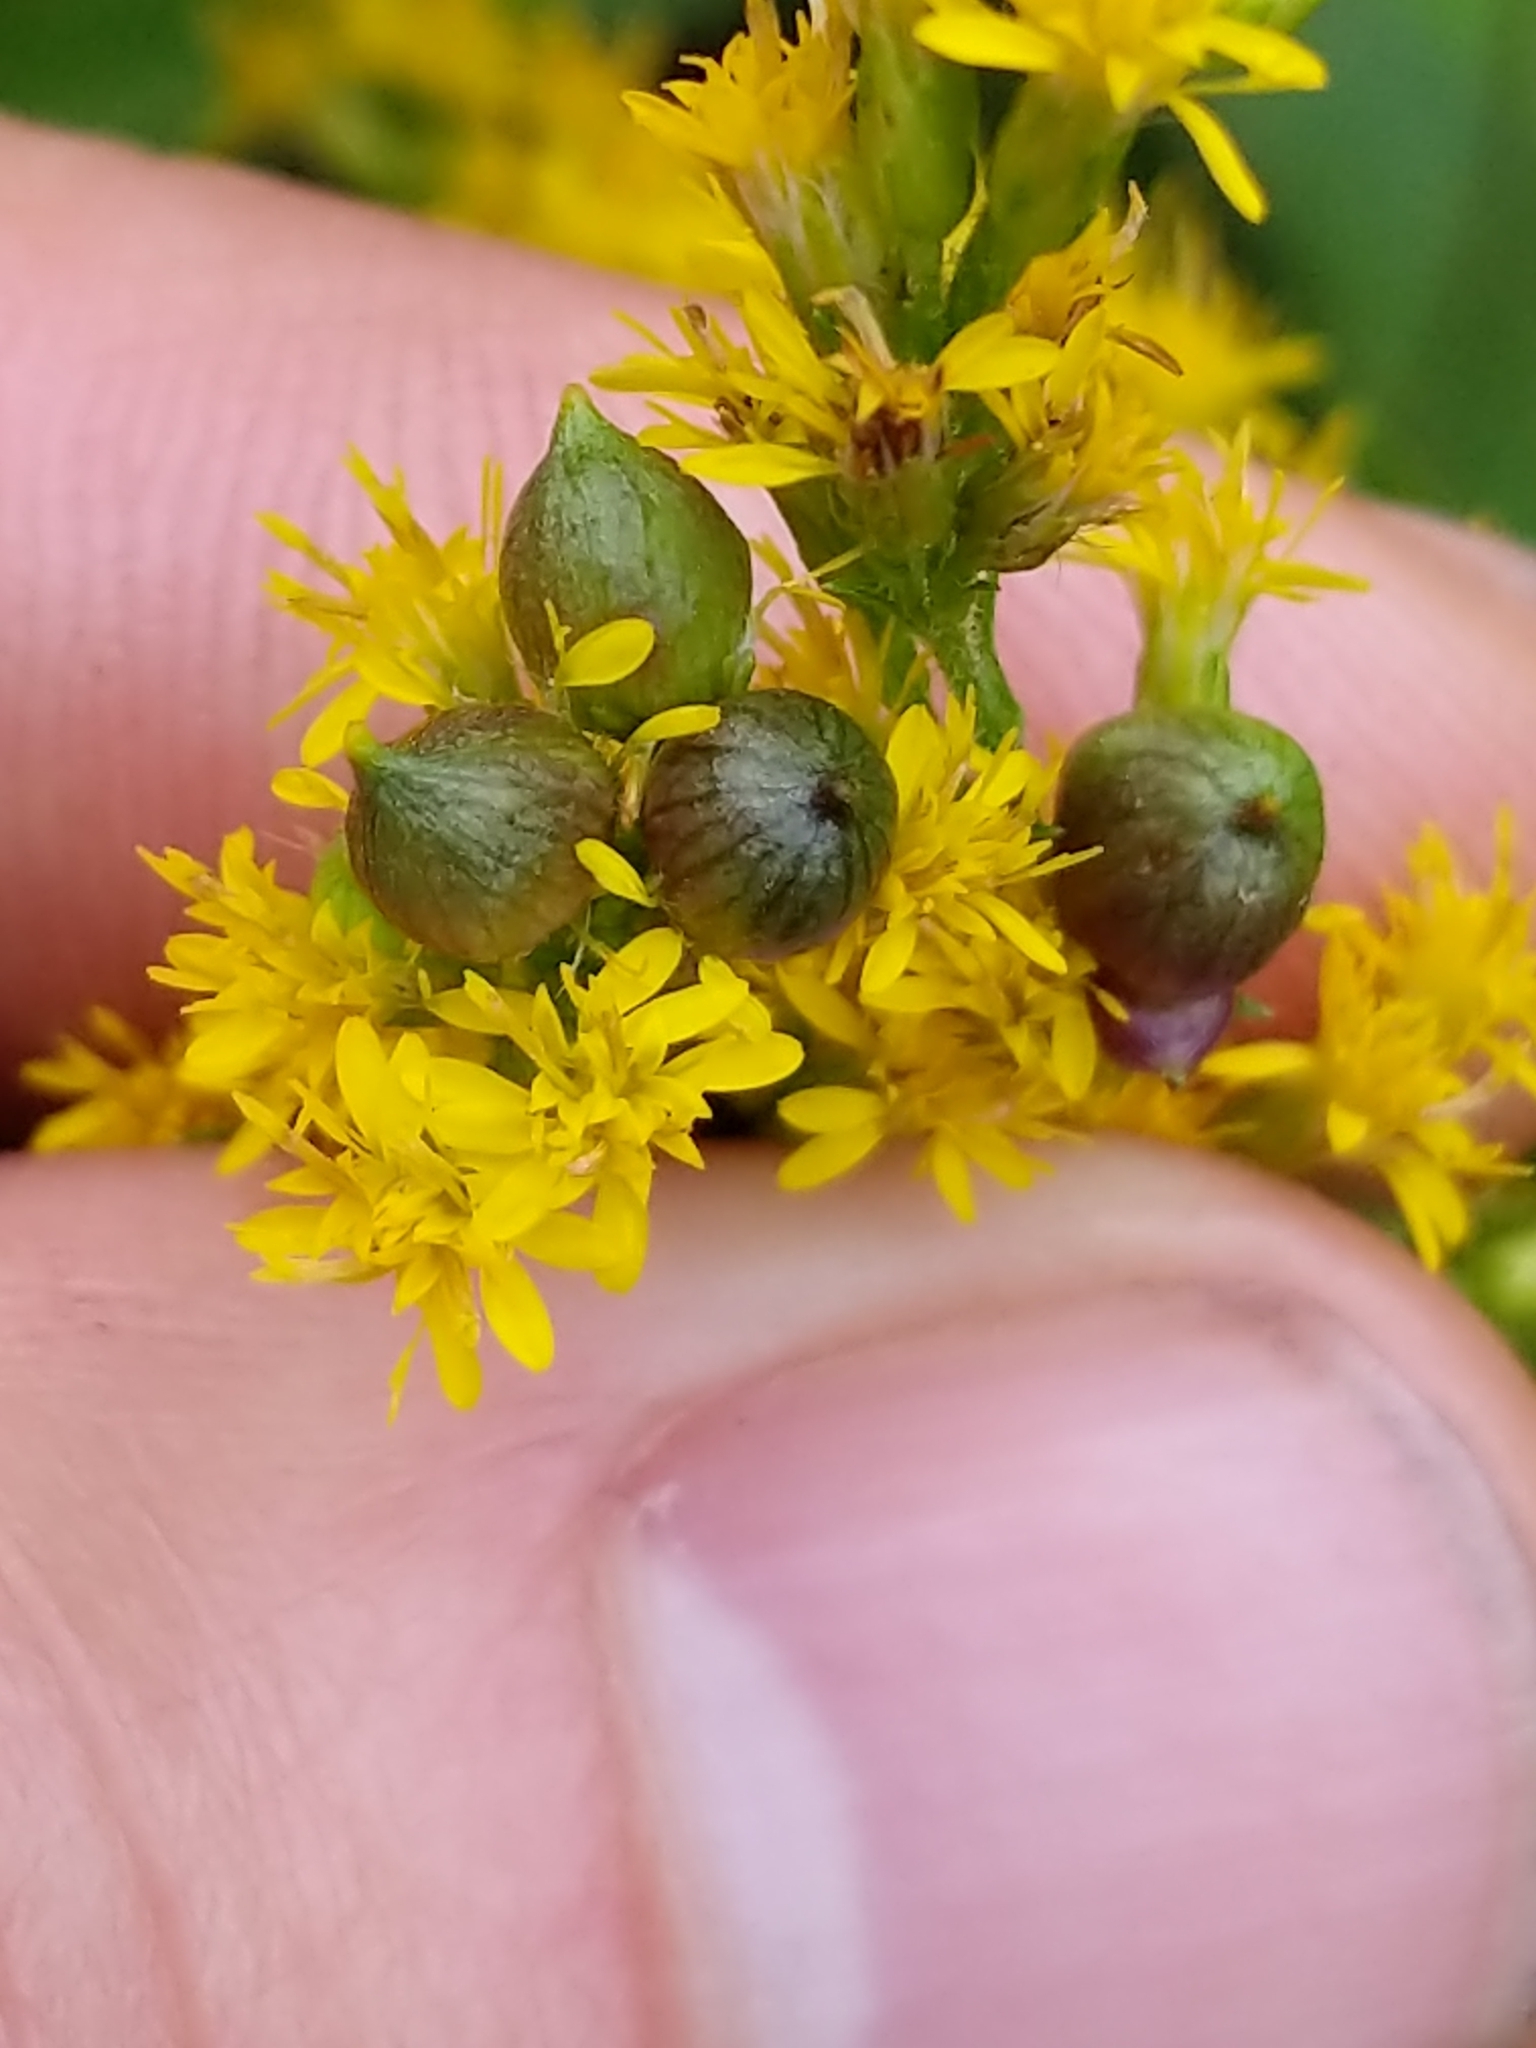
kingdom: Animalia
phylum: Arthropoda
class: Insecta
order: Diptera
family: Cecidomyiidae
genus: Schizomyia
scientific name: Schizomyia racemicola
